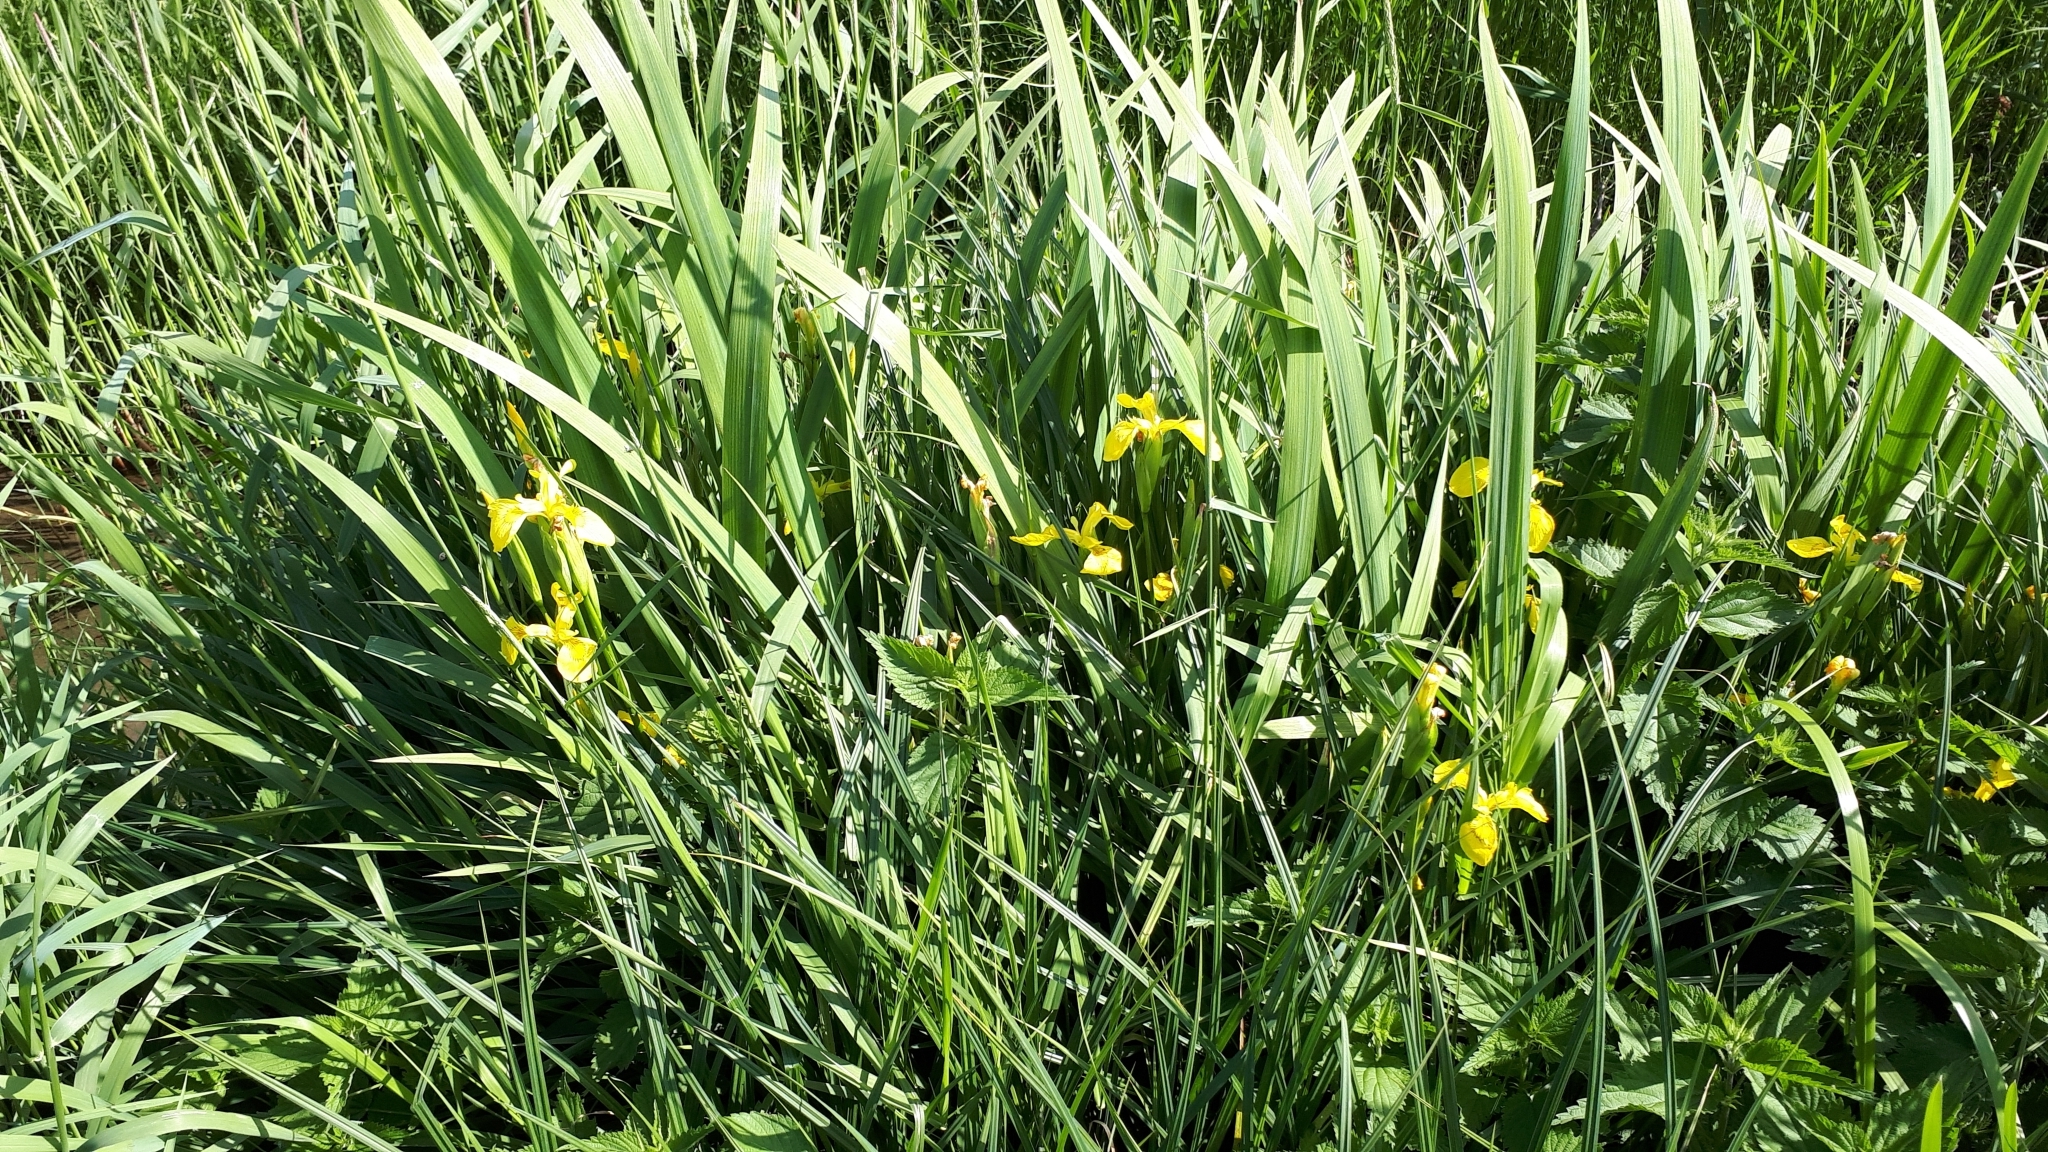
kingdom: Plantae
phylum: Tracheophyta
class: Liliopsida
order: Asparagales
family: Iridaceae
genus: Iris
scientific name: Iris pseudacorus
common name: Yellow flag
